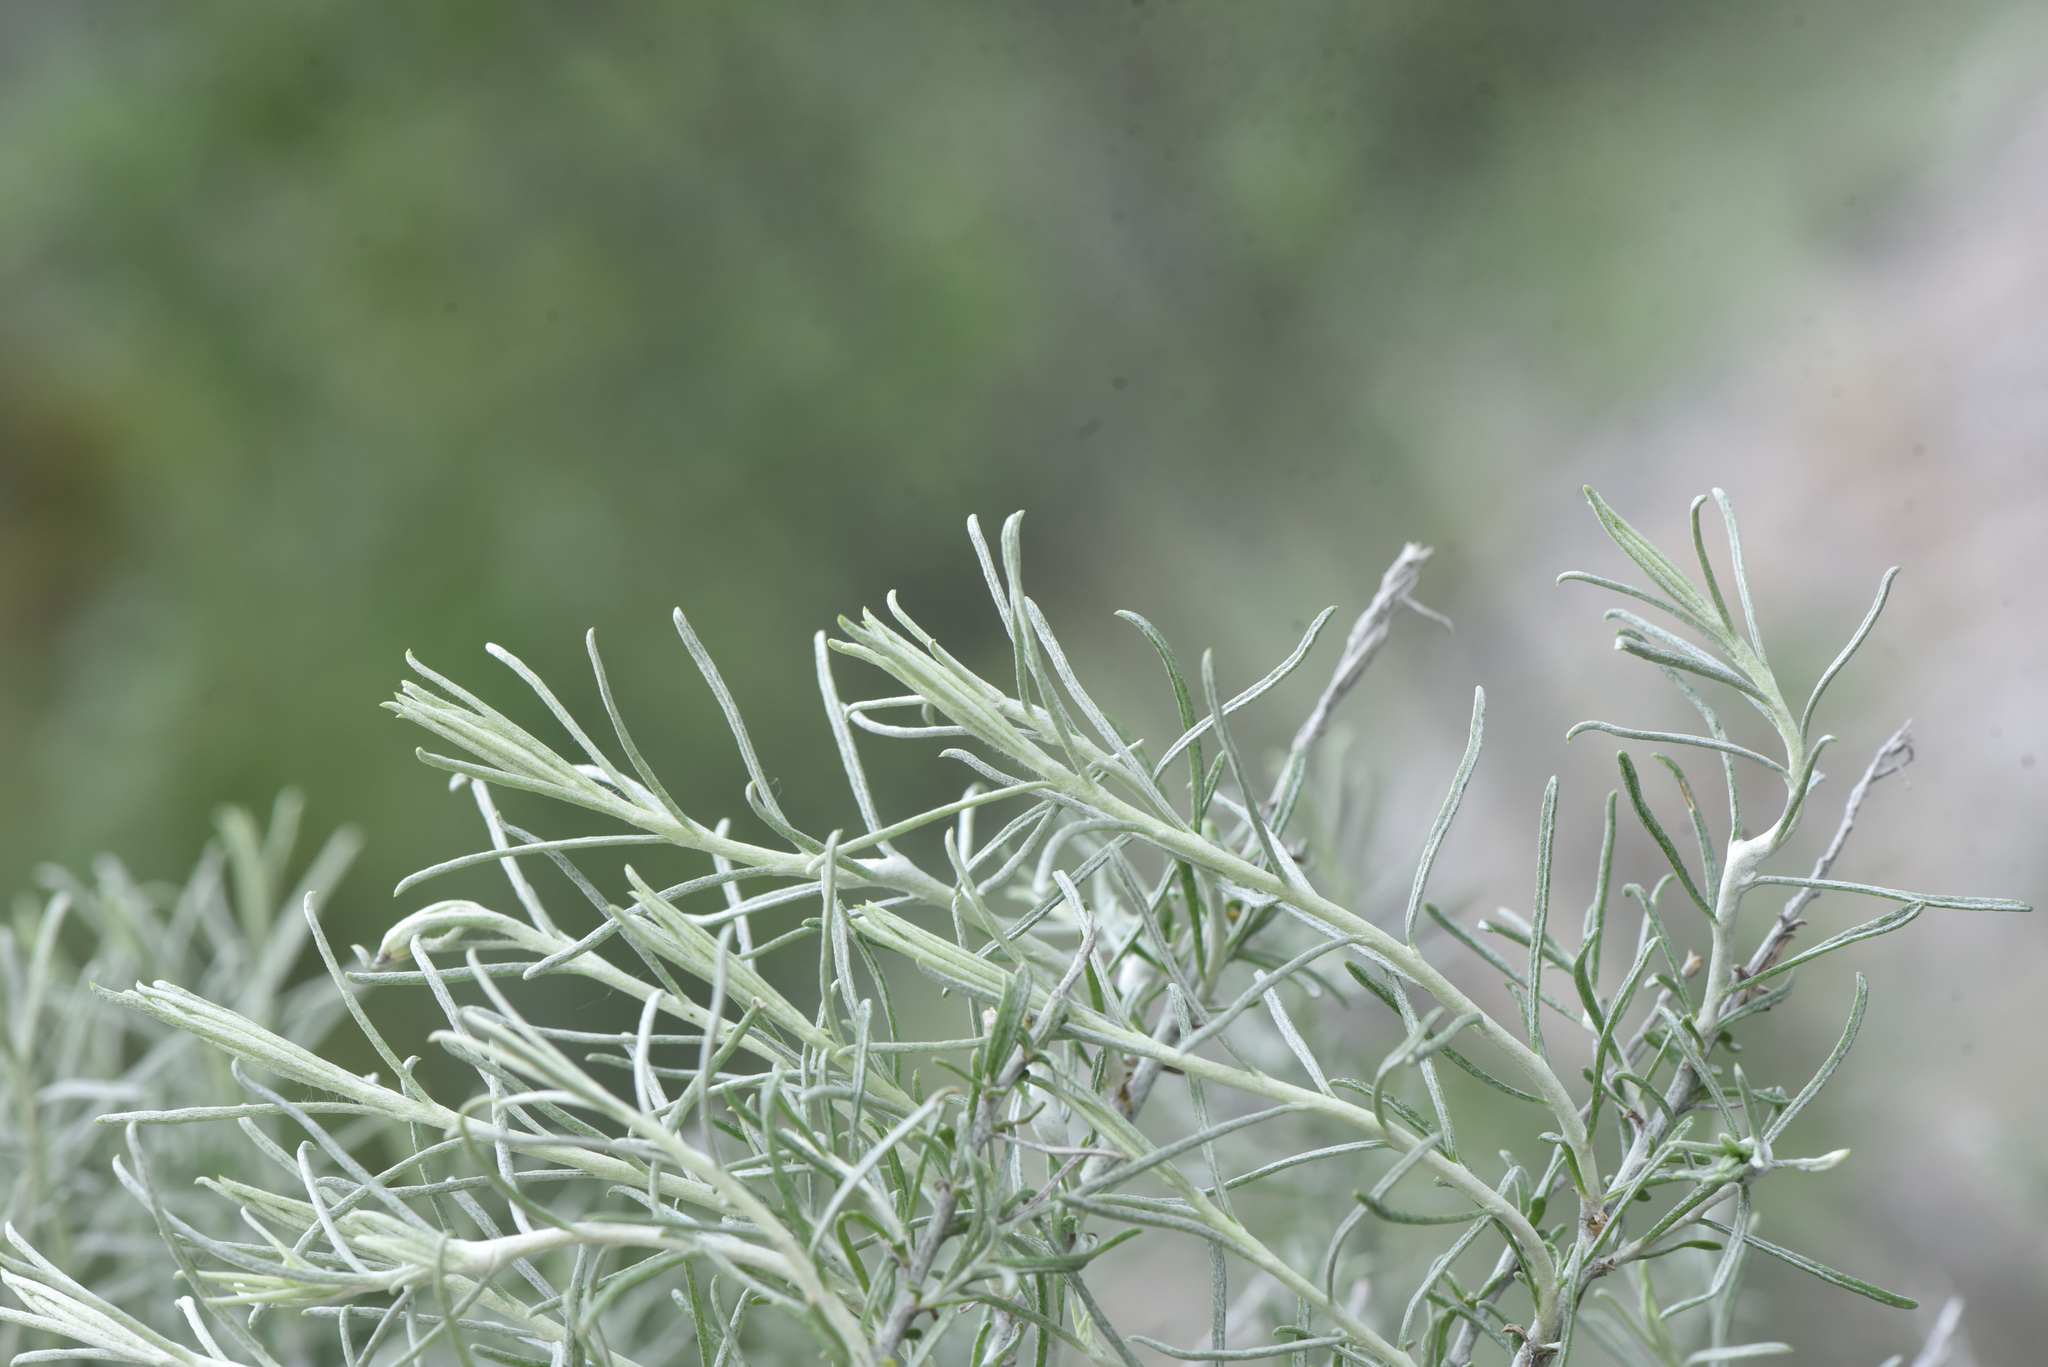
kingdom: Plantae
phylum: Tracheophyta
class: Magnoliopsida
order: Asterales
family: Asteraceae
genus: Ericameria
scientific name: Ericameria nauseosa
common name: Rubber rabbitbrush
